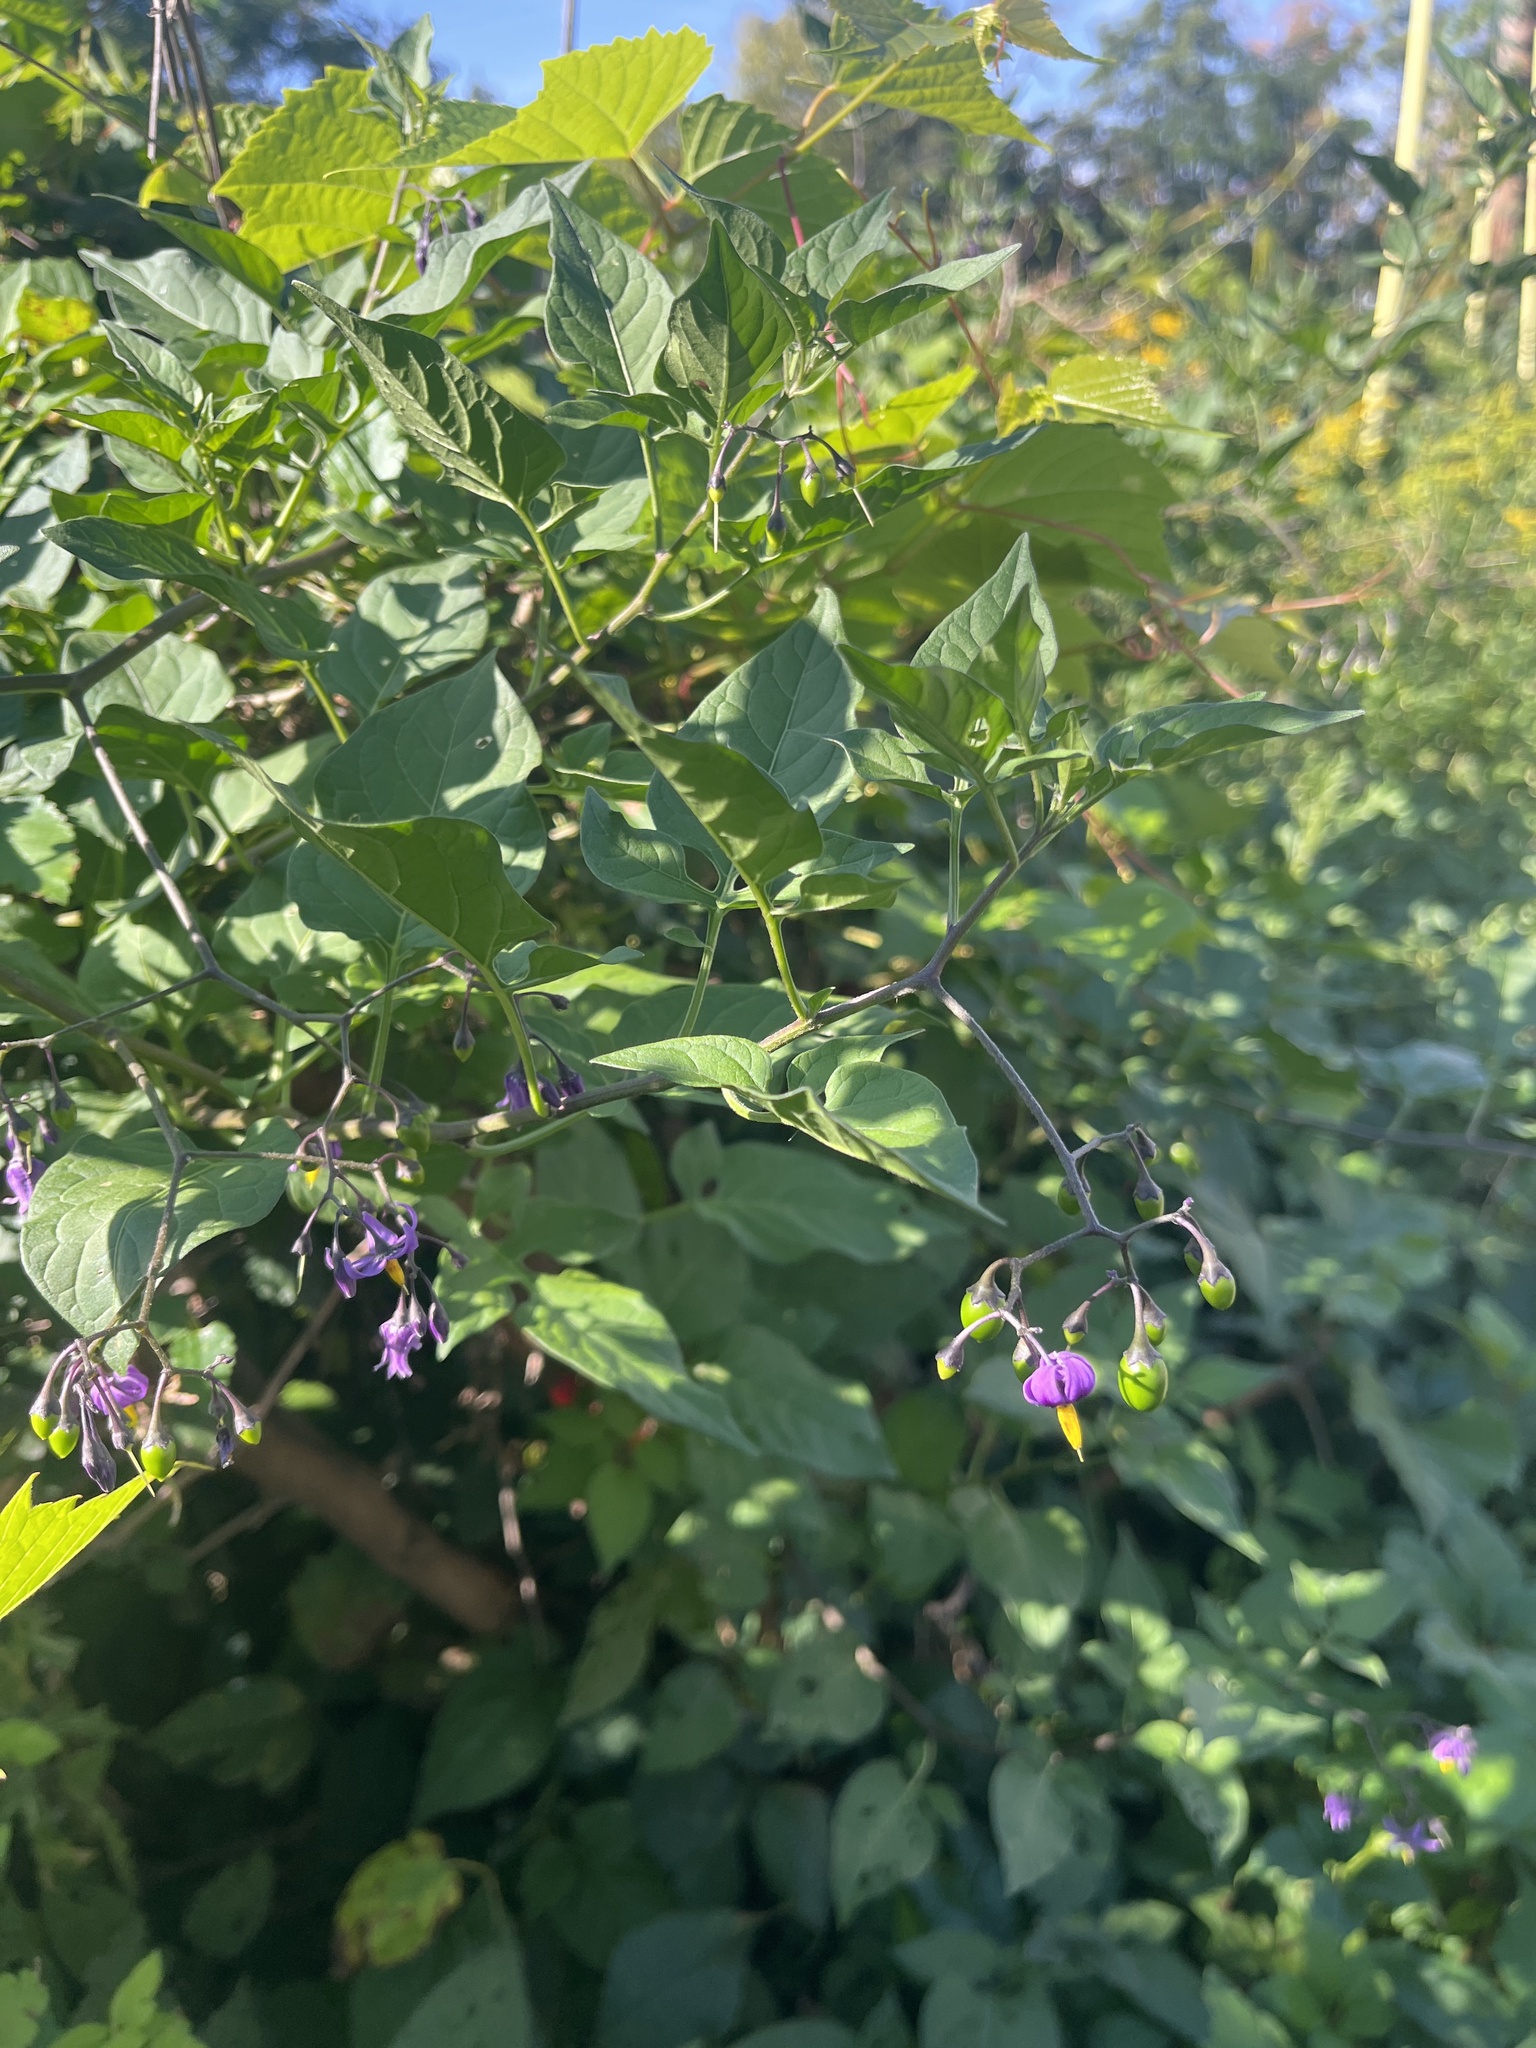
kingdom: Plantae
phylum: Tracheophyta
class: Magnoliopsida
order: Solanales
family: Solanaceae
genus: Solanum
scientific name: Solanum dulcamara
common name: Climbing nightshade
